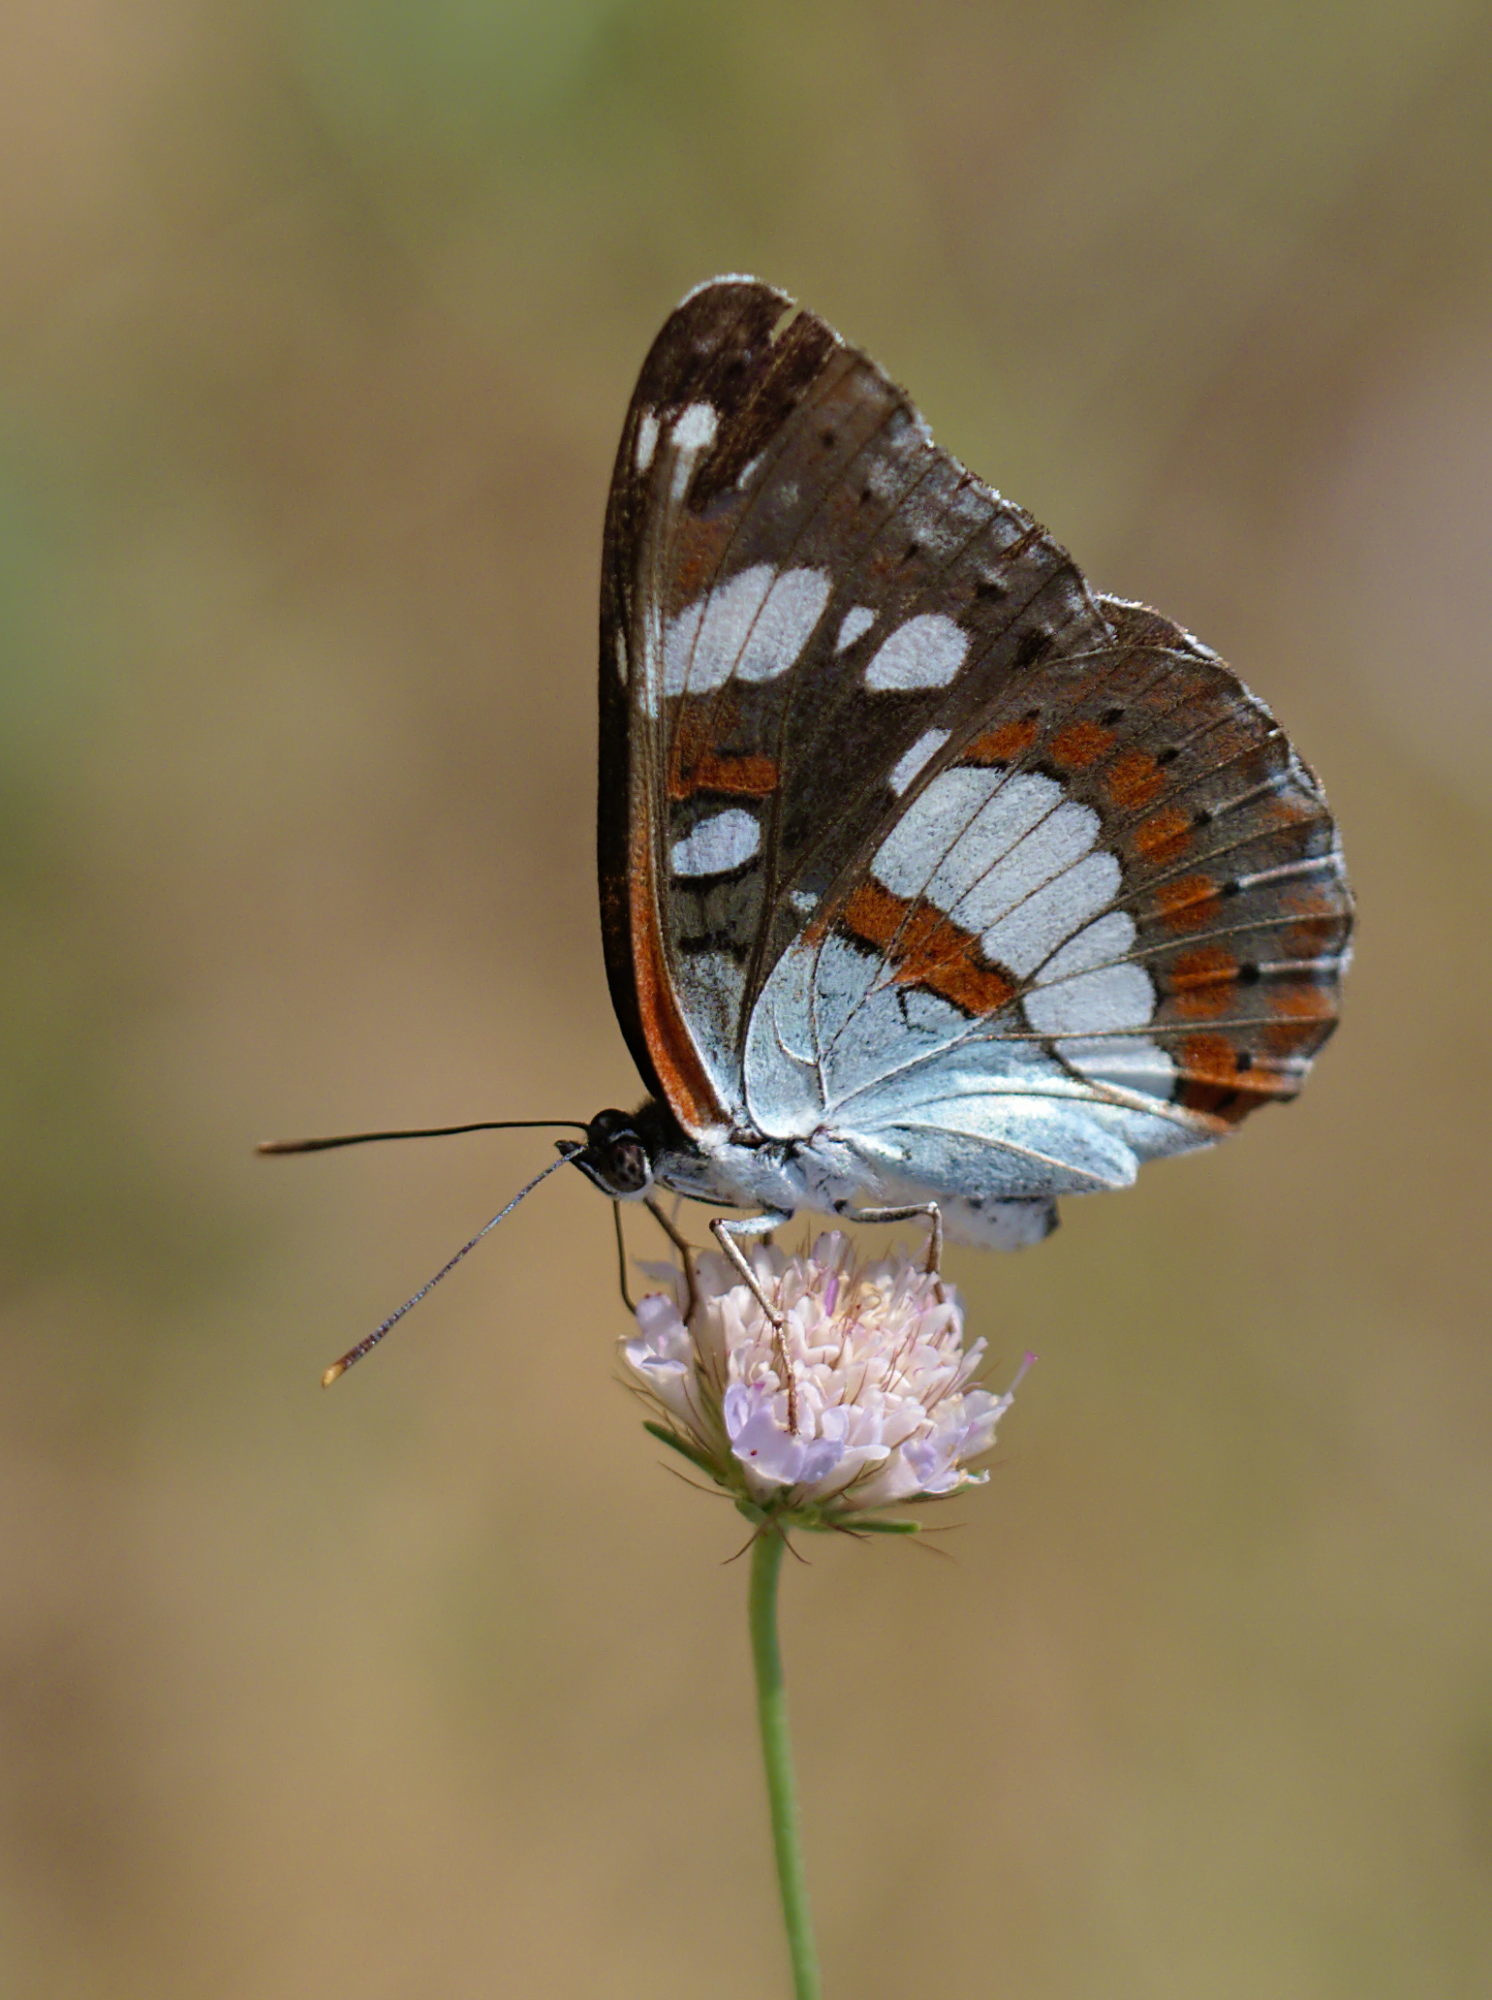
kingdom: Animalia
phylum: Arthropoda
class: Insecta
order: Lepidoptera
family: Nymphalidae
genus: Limenitis
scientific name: Limenitis reducta
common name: Southern white admiral
